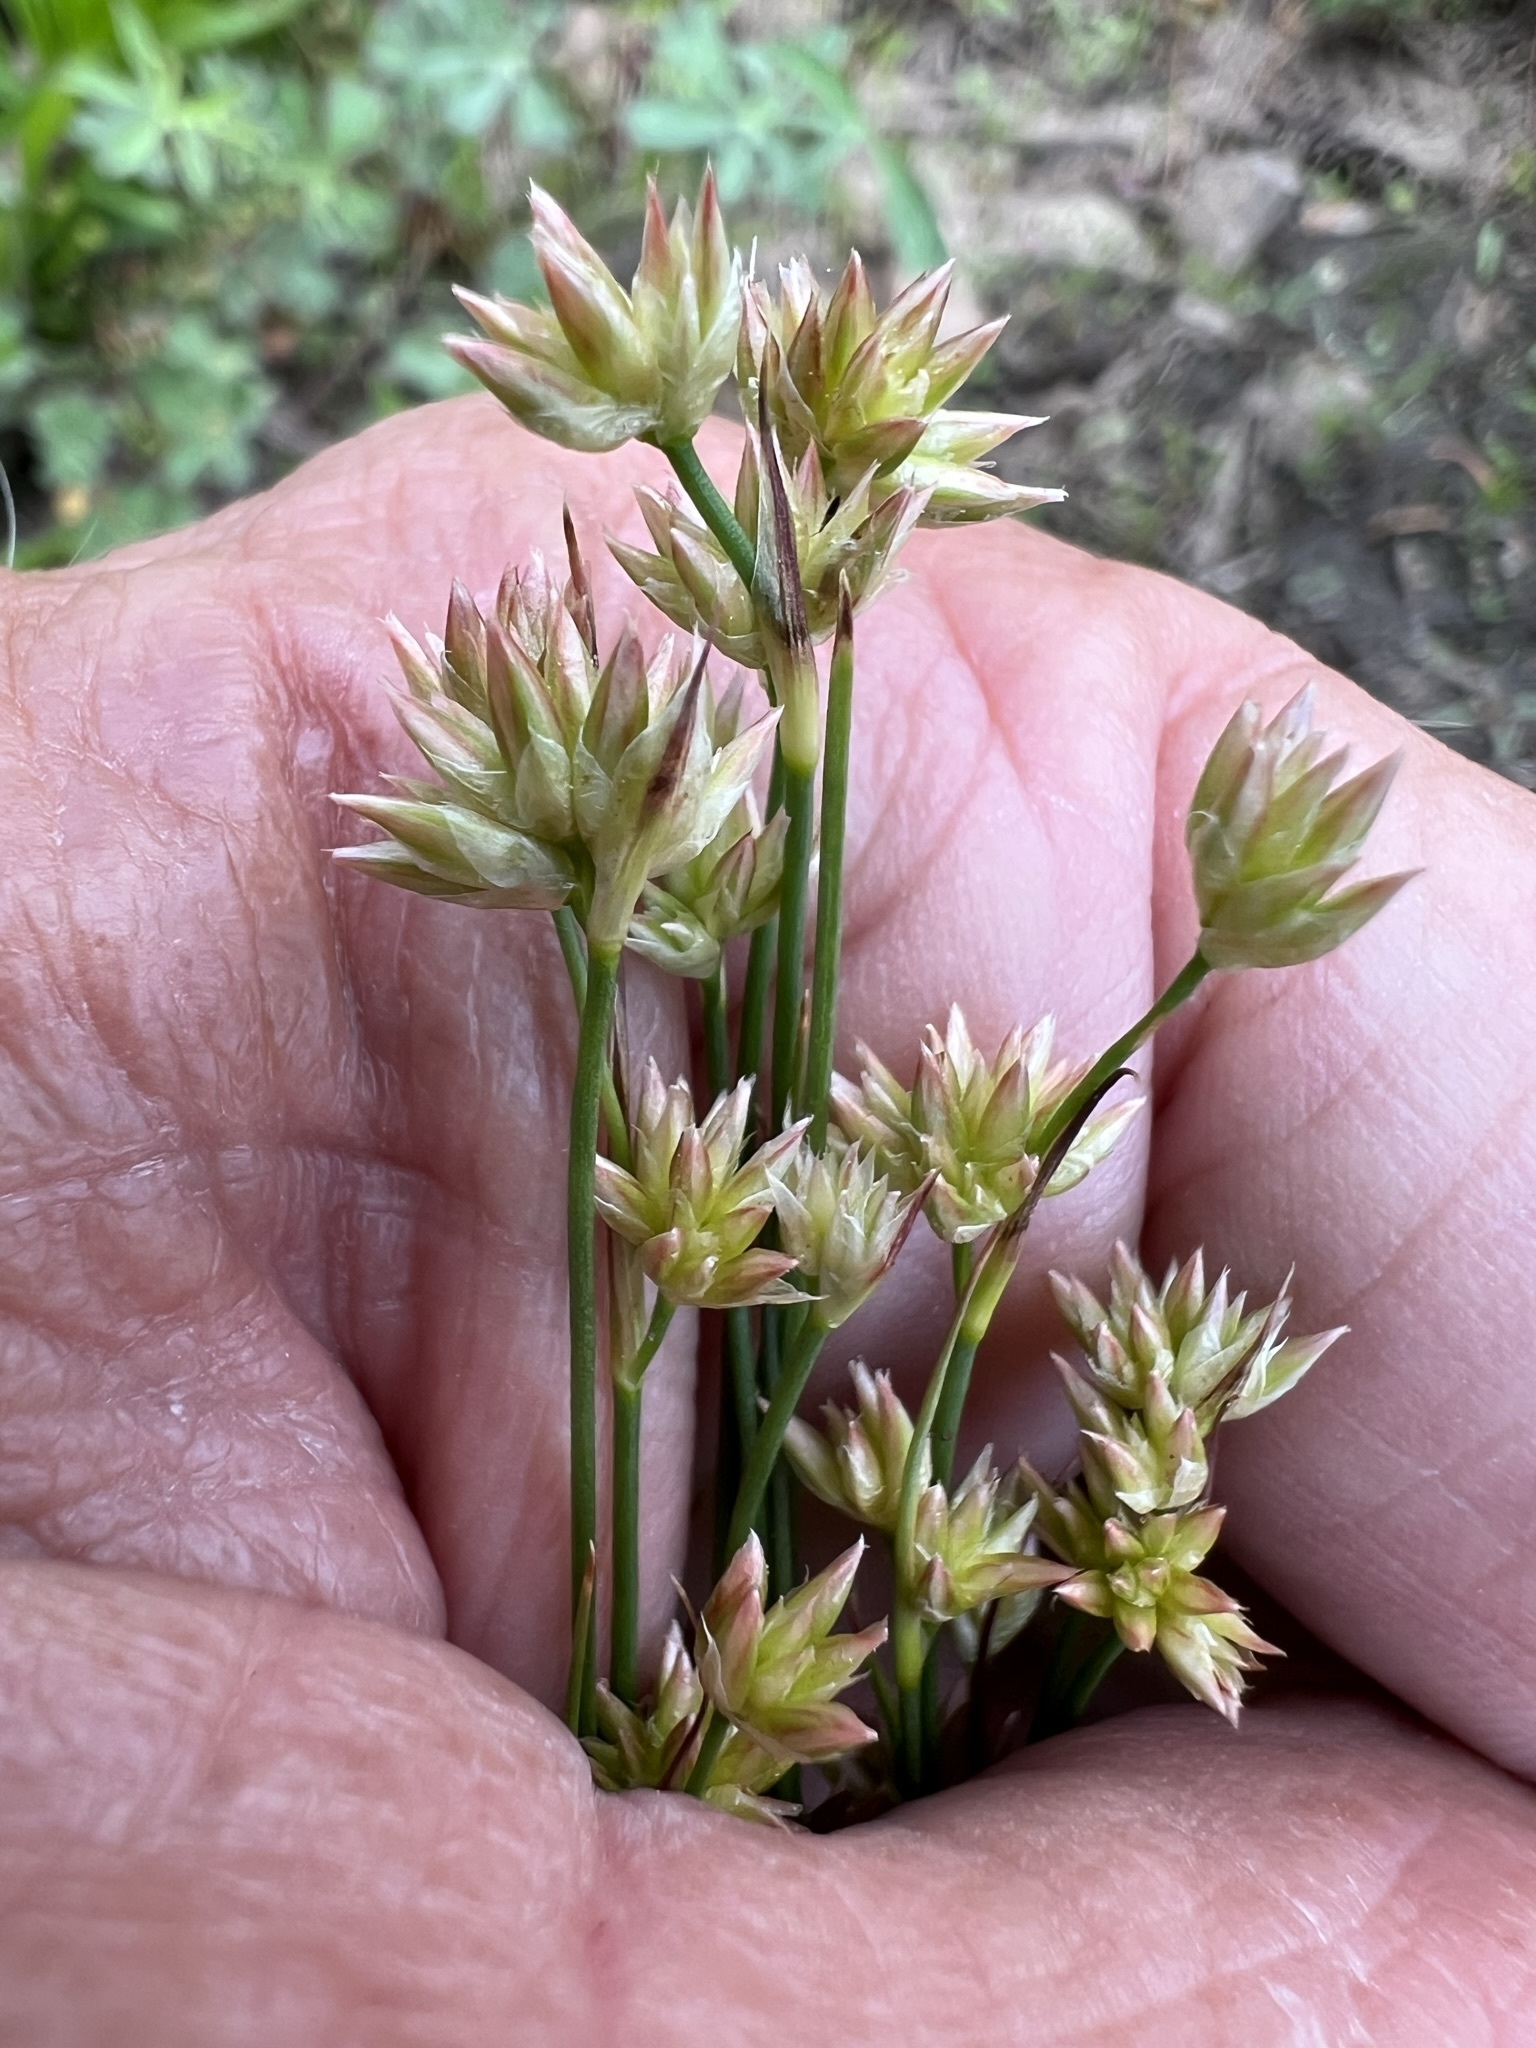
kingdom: Plantae
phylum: Tracheophyta
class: Liliopsida
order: Poales
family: Juncaceae
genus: Juncus
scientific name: Juncus chlorocephalus
